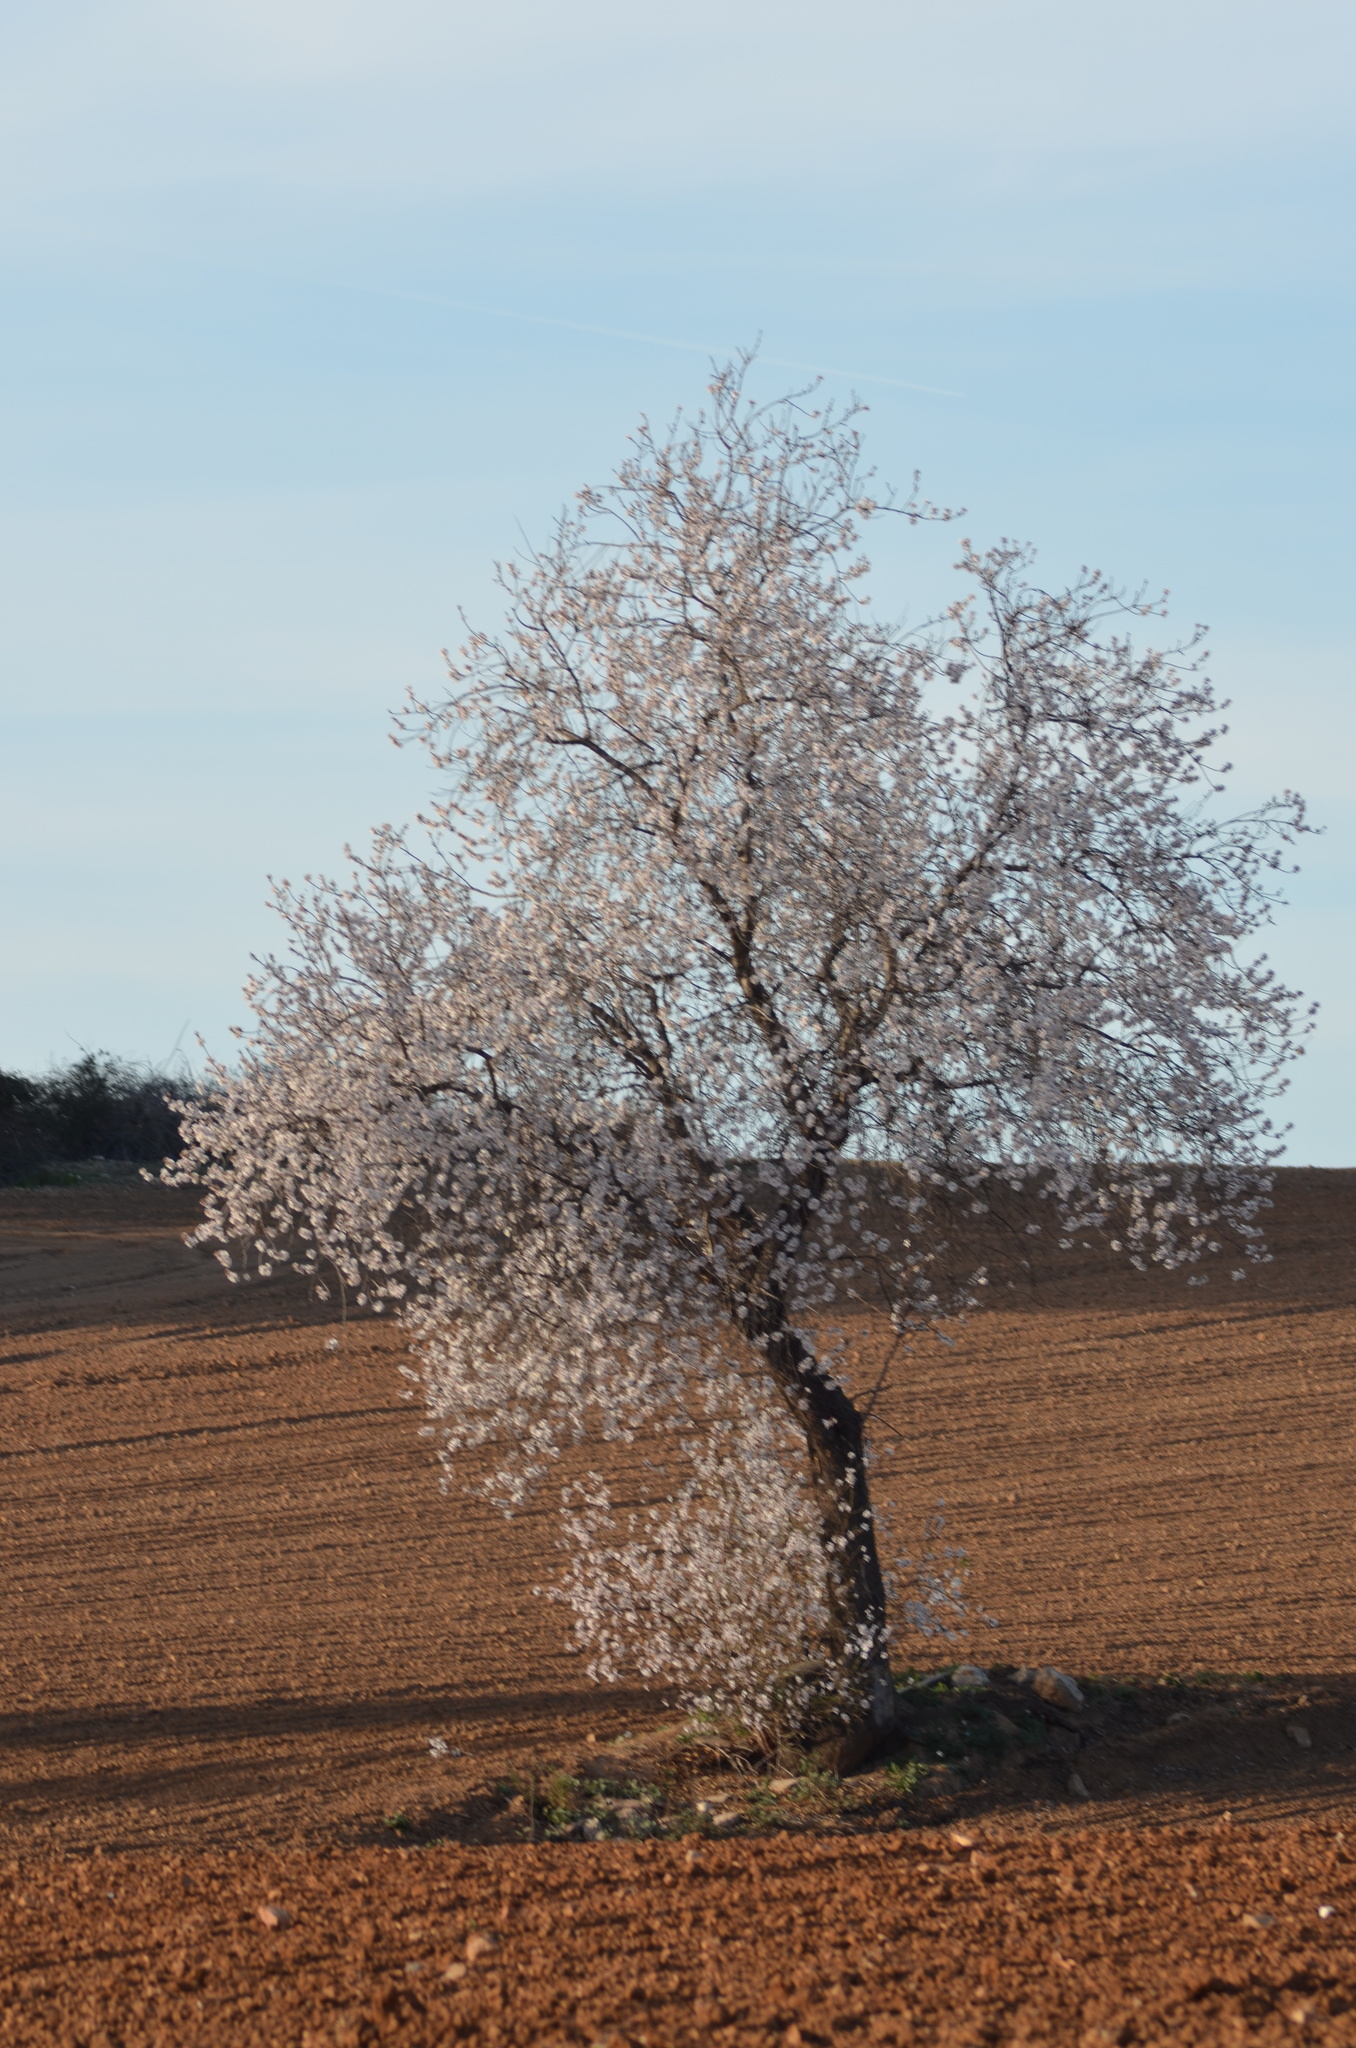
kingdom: Plantae
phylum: Tracheophyta
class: Magnoliopsida
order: Rosales
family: Rosaceae
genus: Prunus
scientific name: Prunus amygdalus
